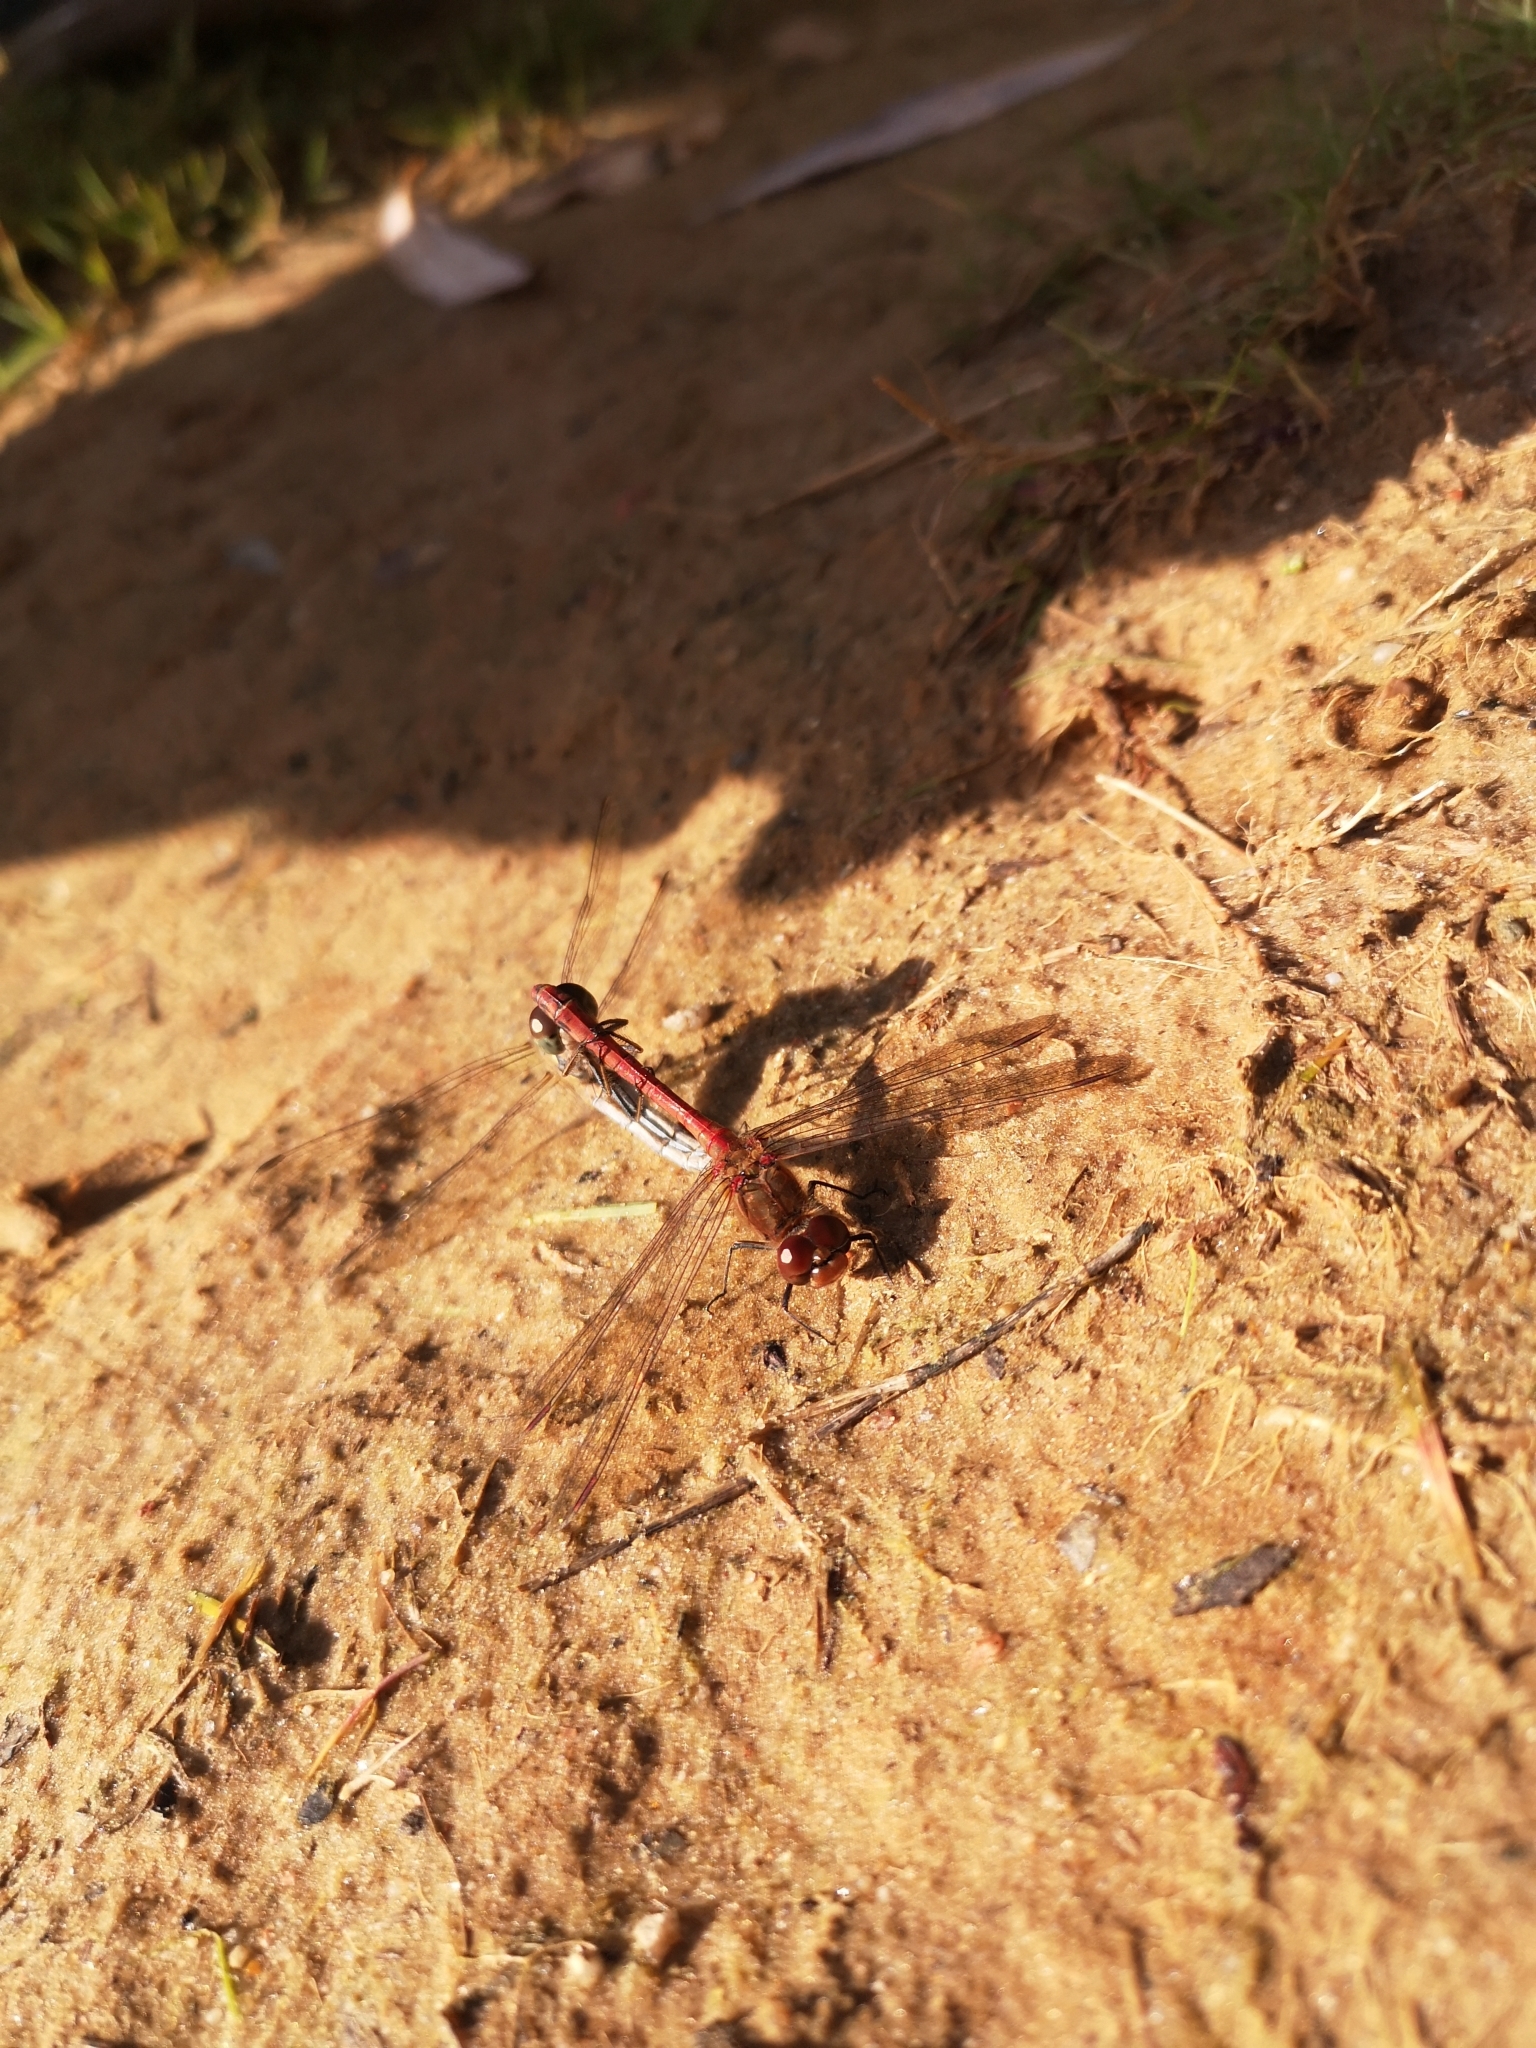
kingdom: Animalia
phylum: Arthropoda
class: Insecta
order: Odonata
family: Libellulidae
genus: Sympetrum
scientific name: Sympetrum striolatum
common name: Common darter
